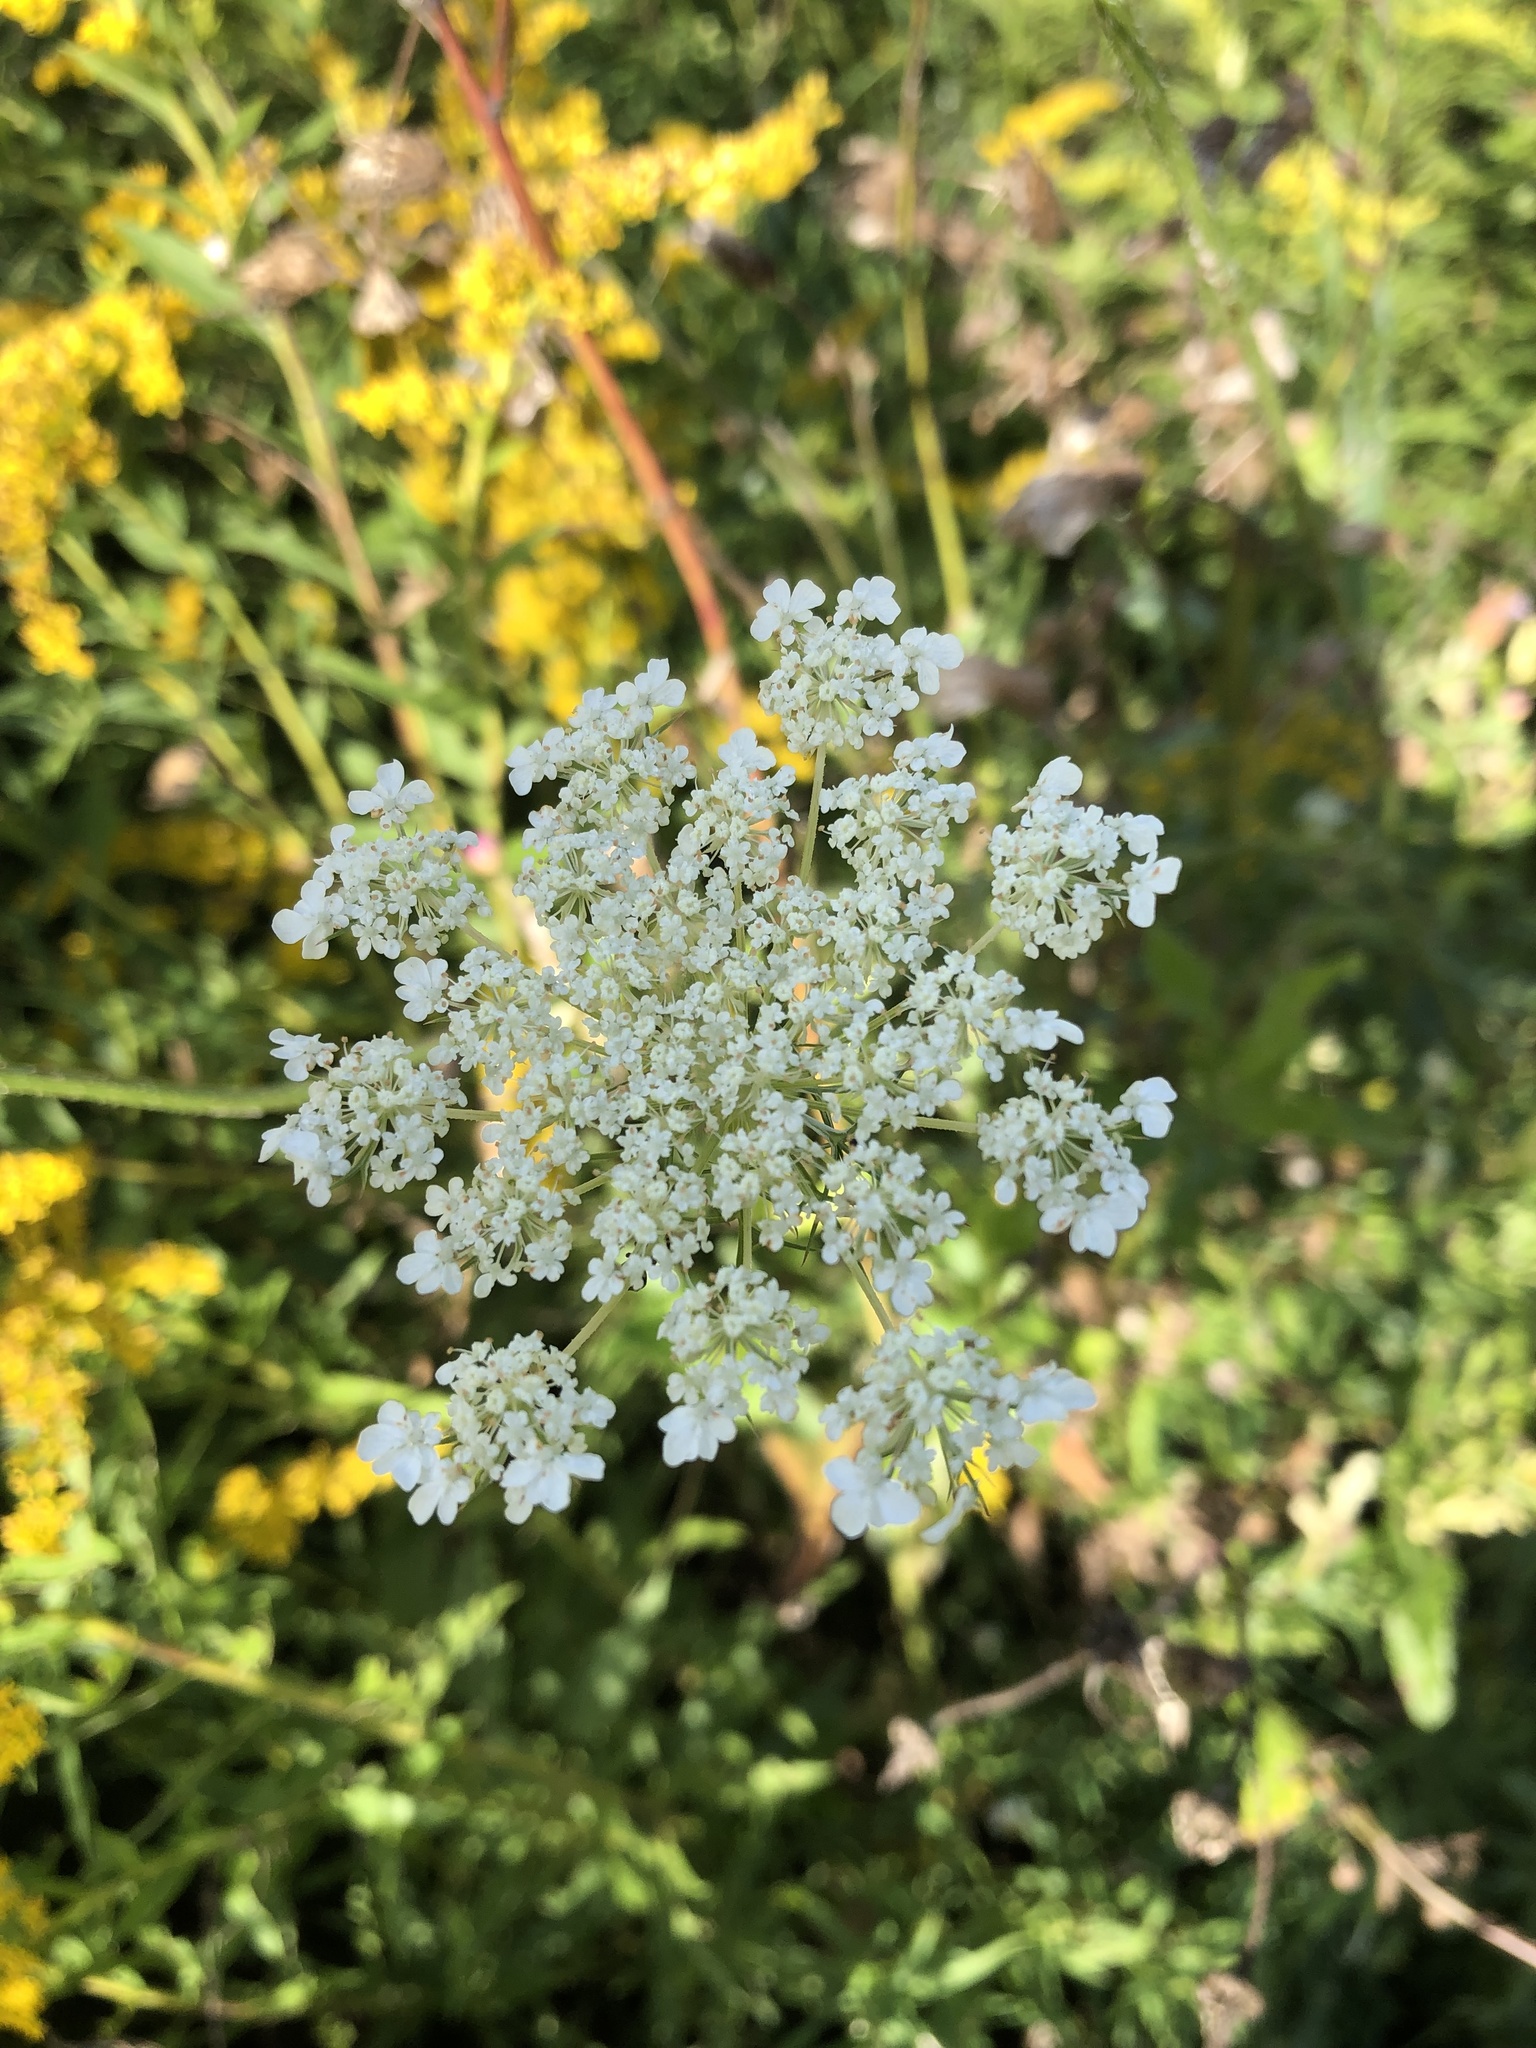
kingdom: Plantae
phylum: Tracheophyta
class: Magnoliopsida
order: Apiales
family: Apiaceae
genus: Daucus
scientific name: Daucus carota
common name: Wild carrot
